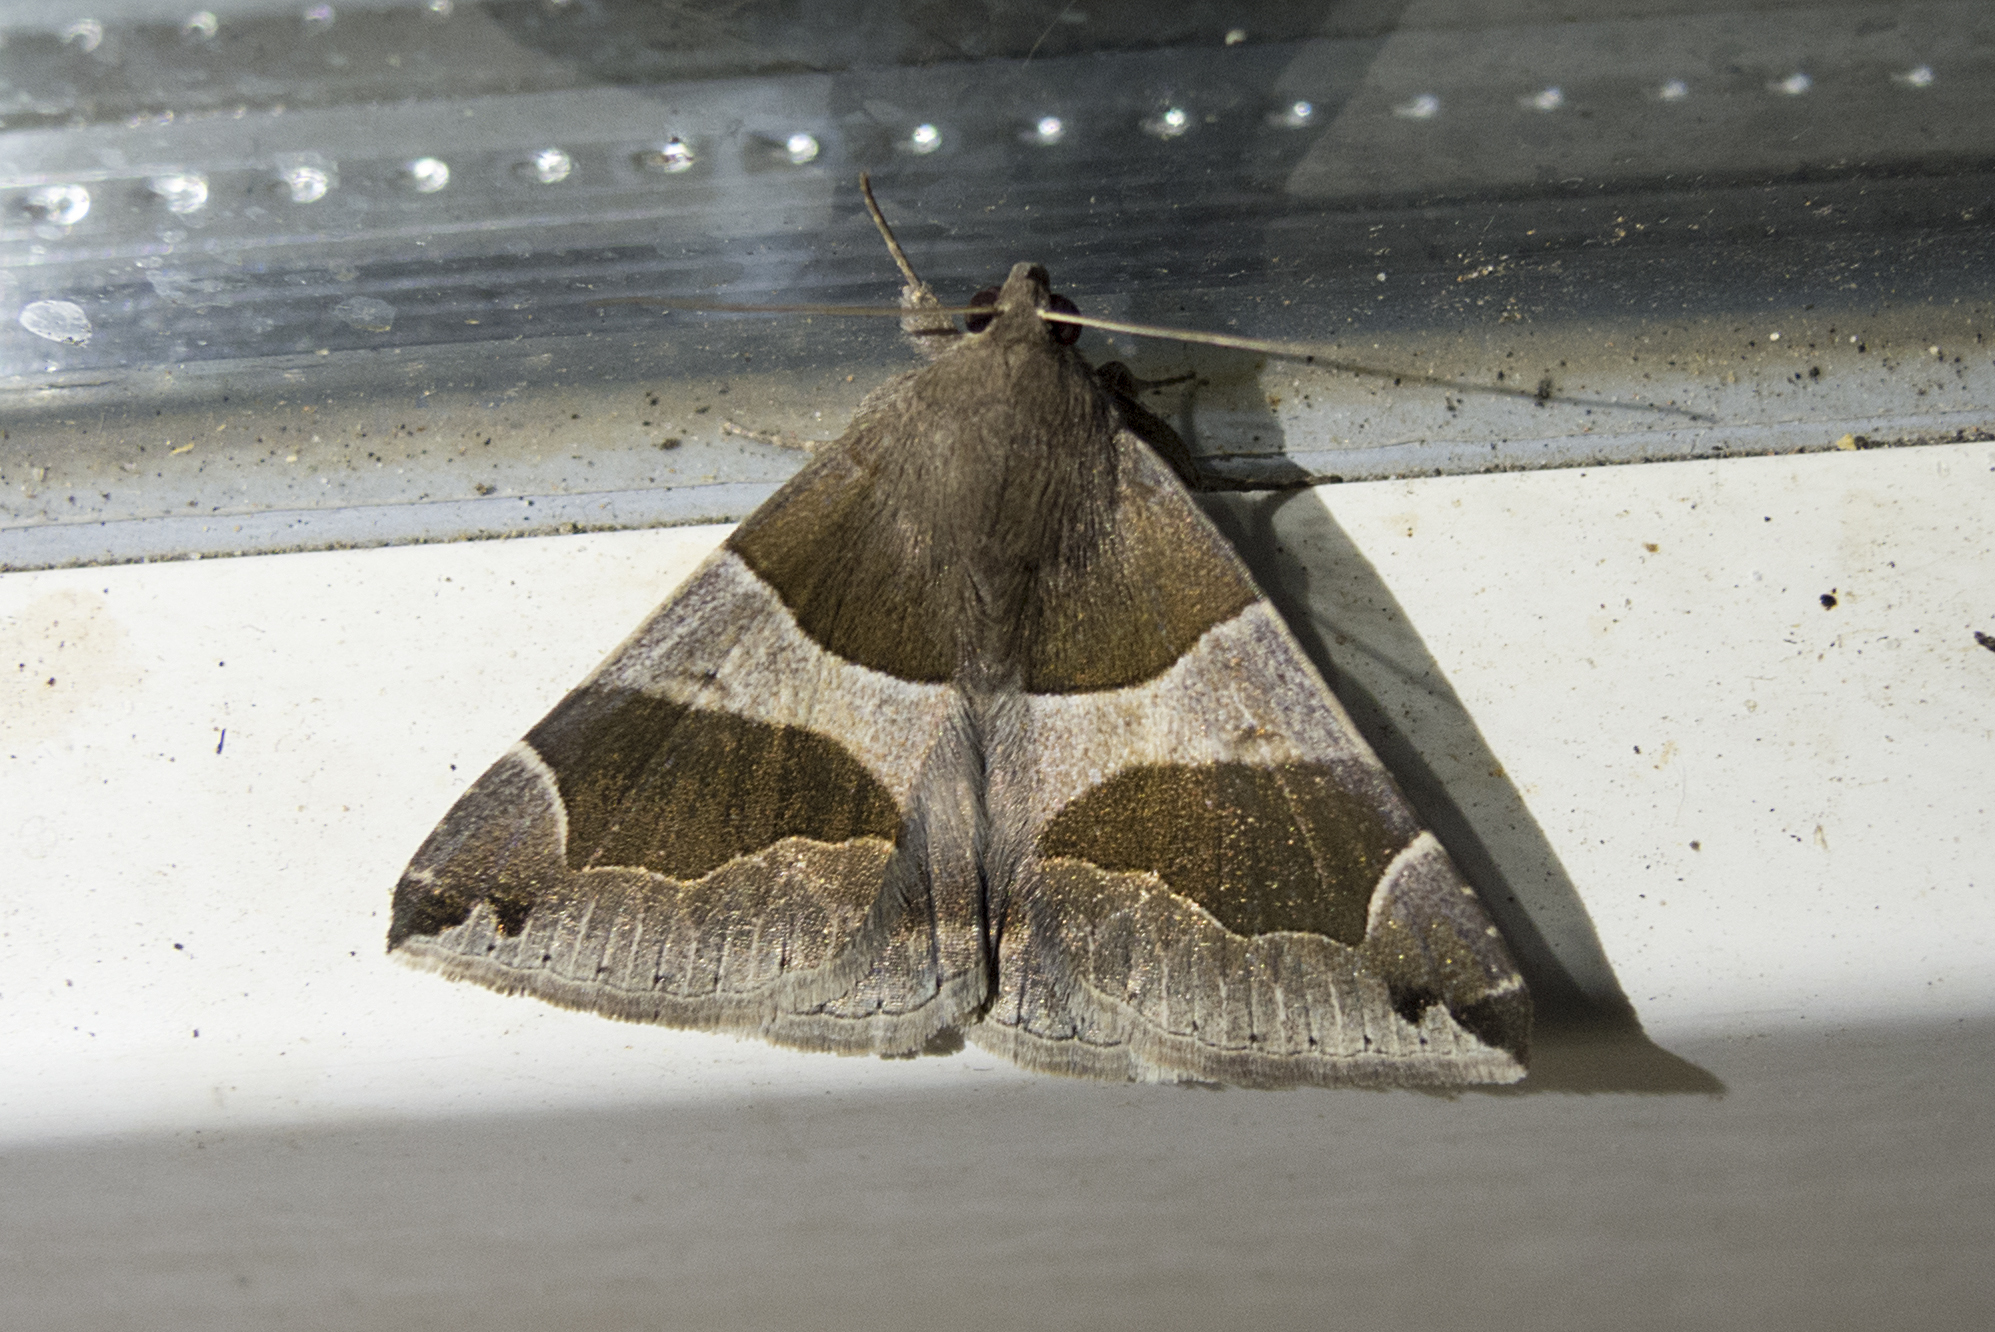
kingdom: Animalia
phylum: Arthropoda
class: Insecta
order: Lepidoptera
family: Erebidae
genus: Dysgonia
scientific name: Dysgonia algira
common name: Passenger
